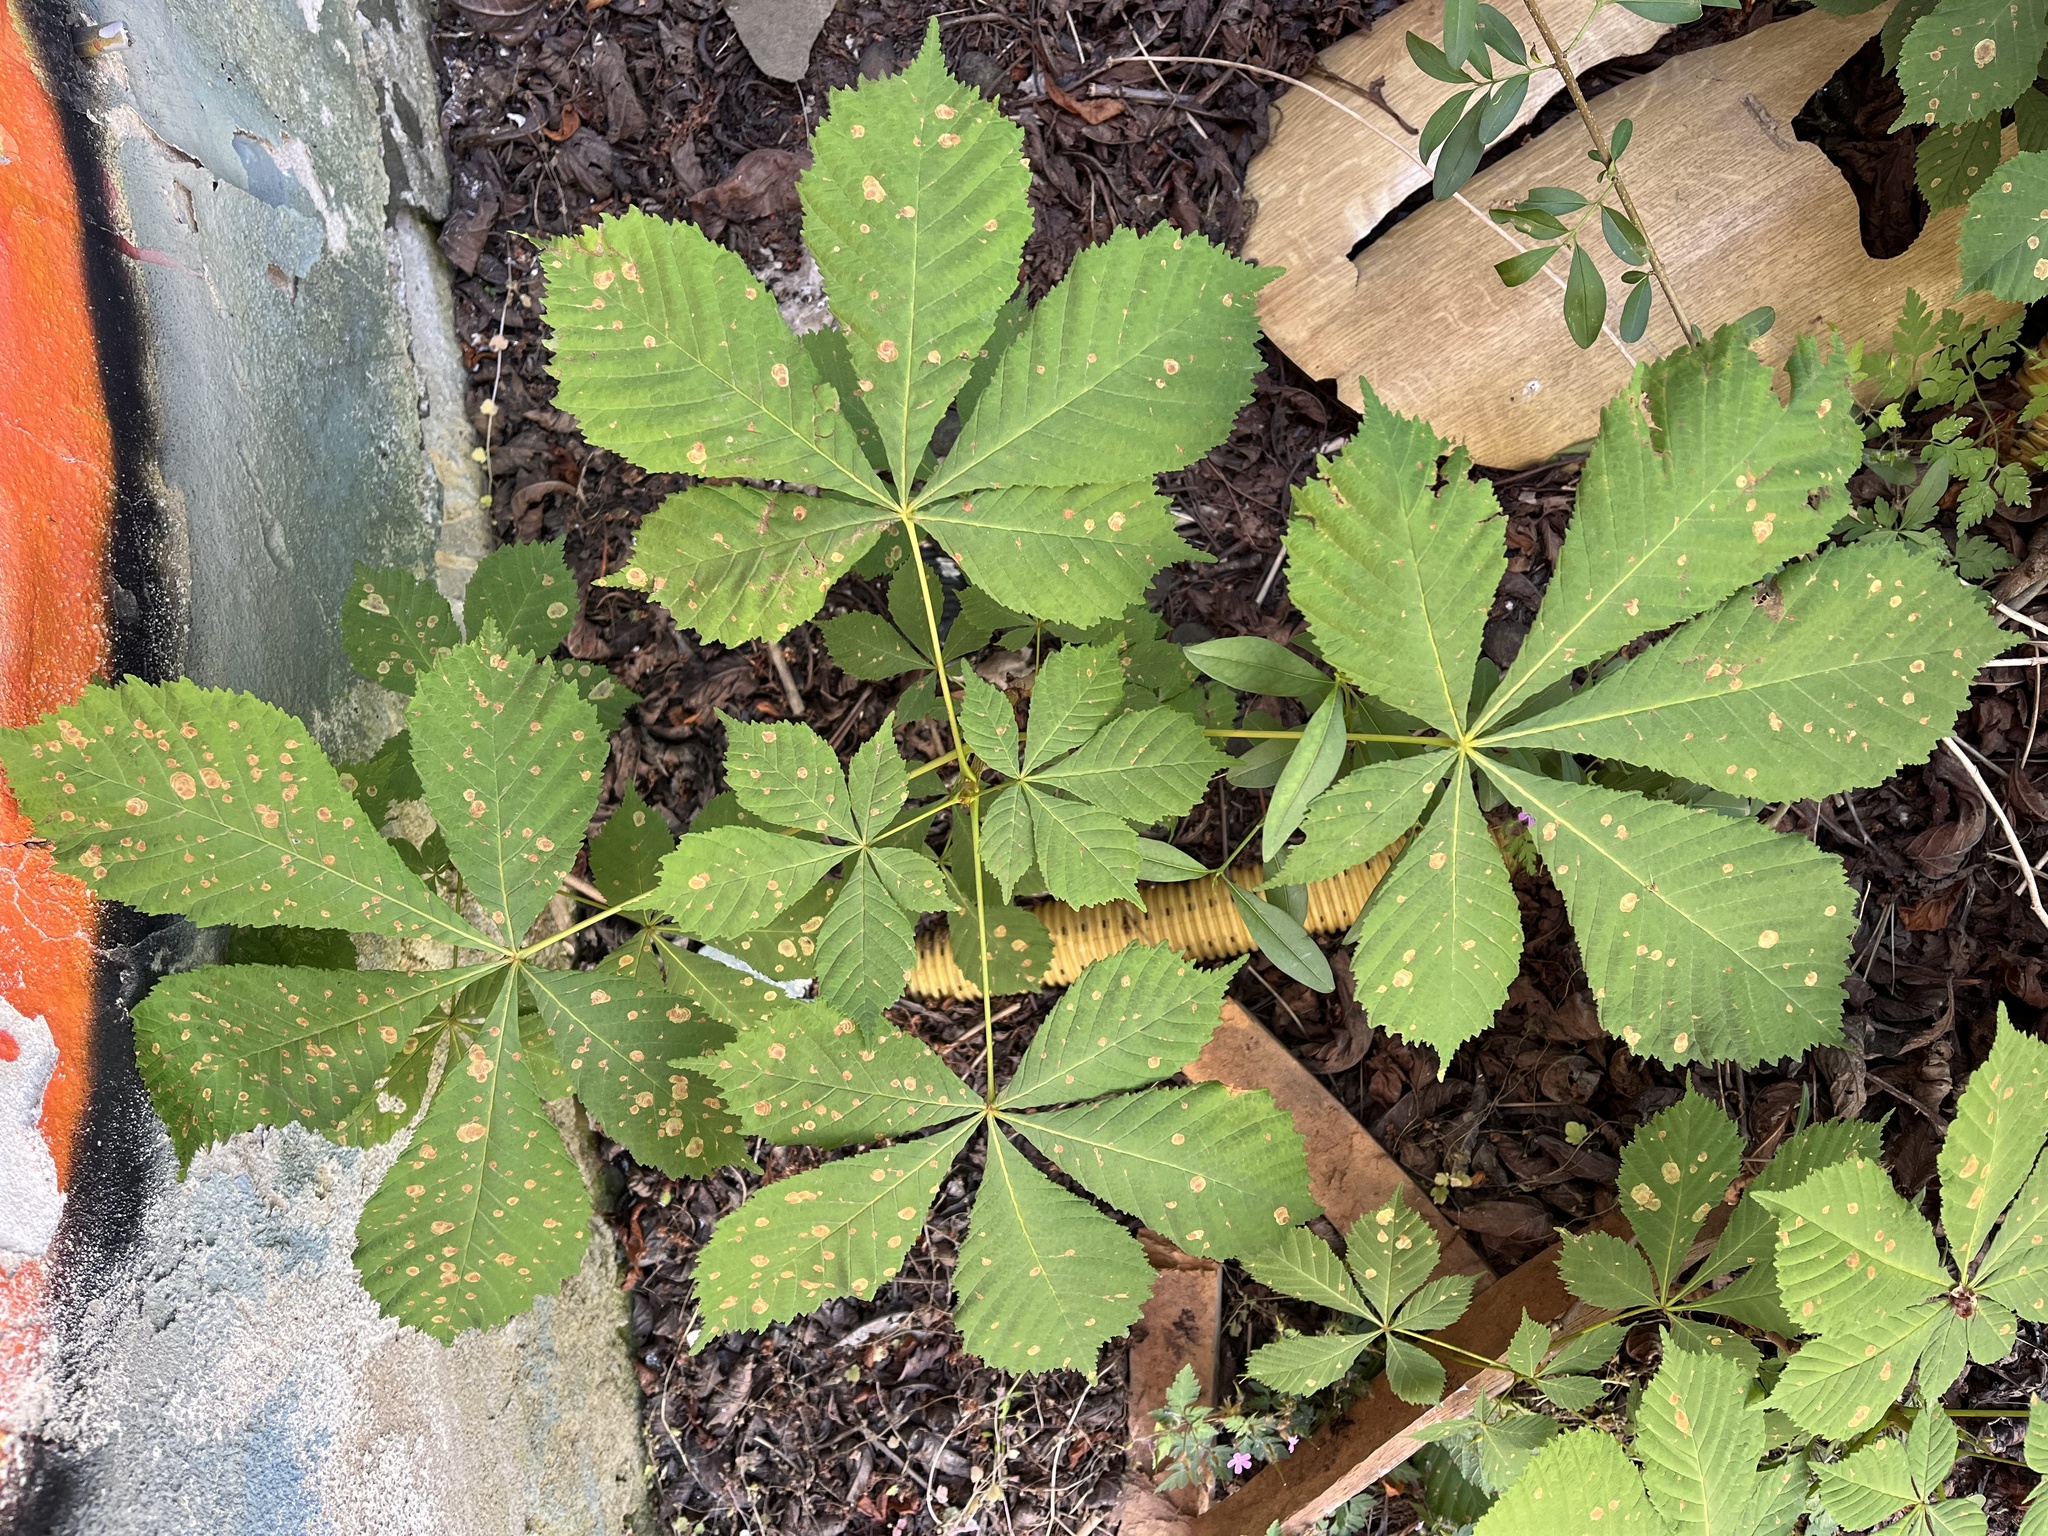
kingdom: Plantae
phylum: Tracheophyta
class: Magnoliopsida
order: Sapindales
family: Sapindaceae
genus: Aesculus
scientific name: Aesculus hippocastanum
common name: Horse-chestnut
